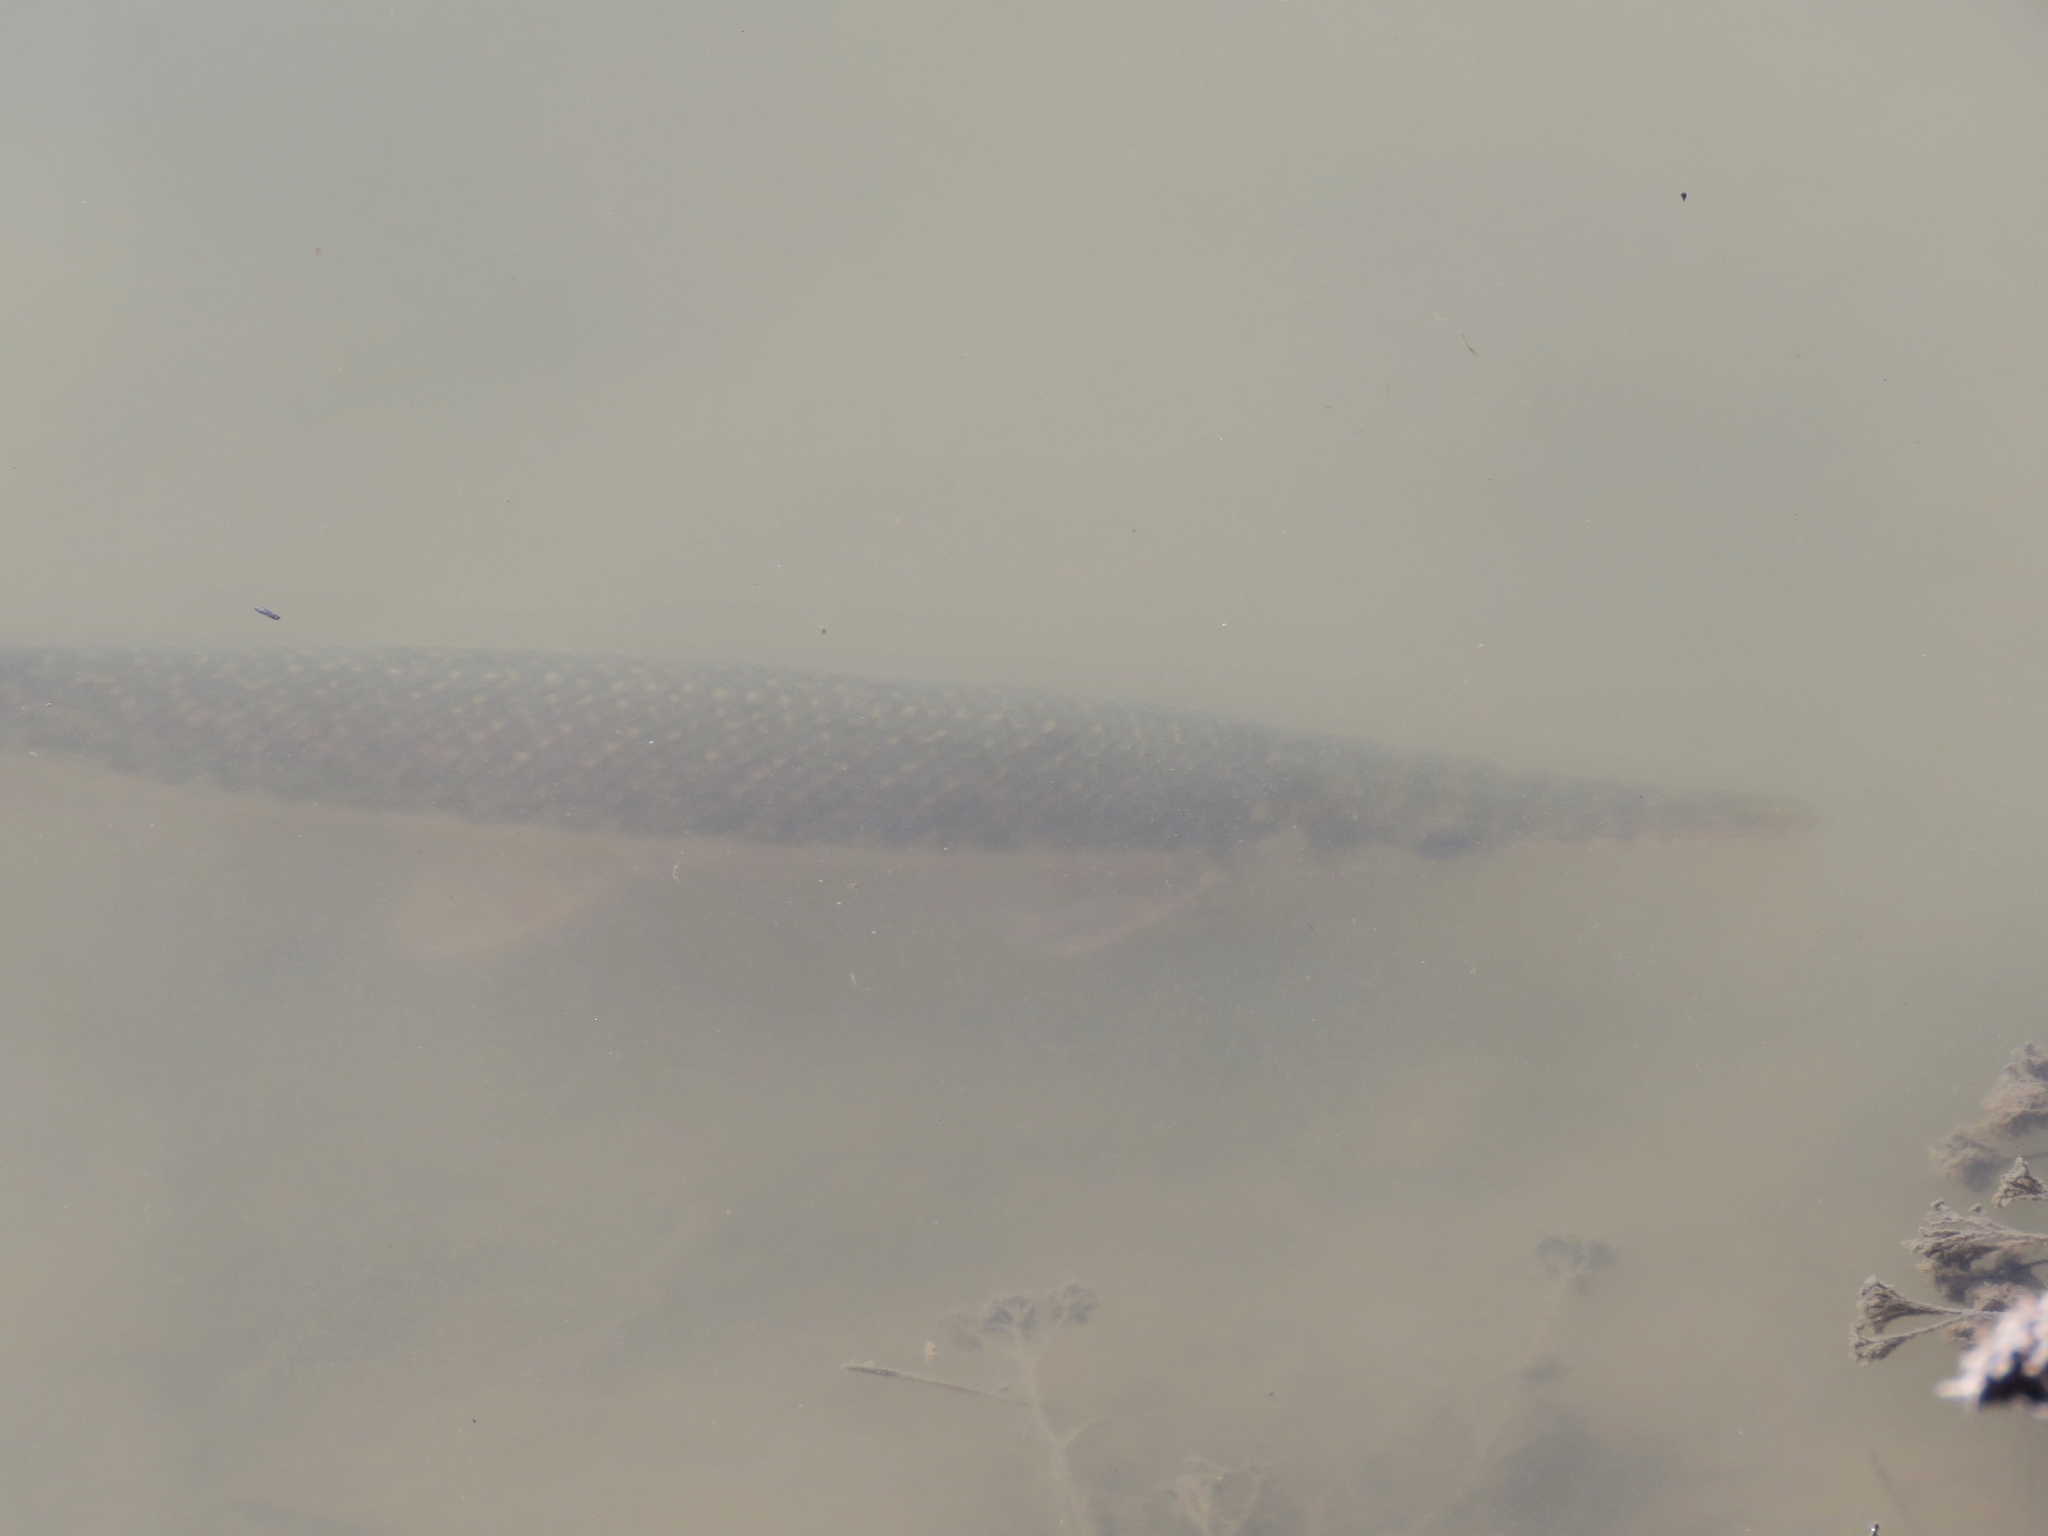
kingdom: Animalia
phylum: Chordata
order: Lepisosteiformes
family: Lepisosteidae
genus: Lepisosteus
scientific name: Lepisosteus oculatus
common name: Spotted gar
